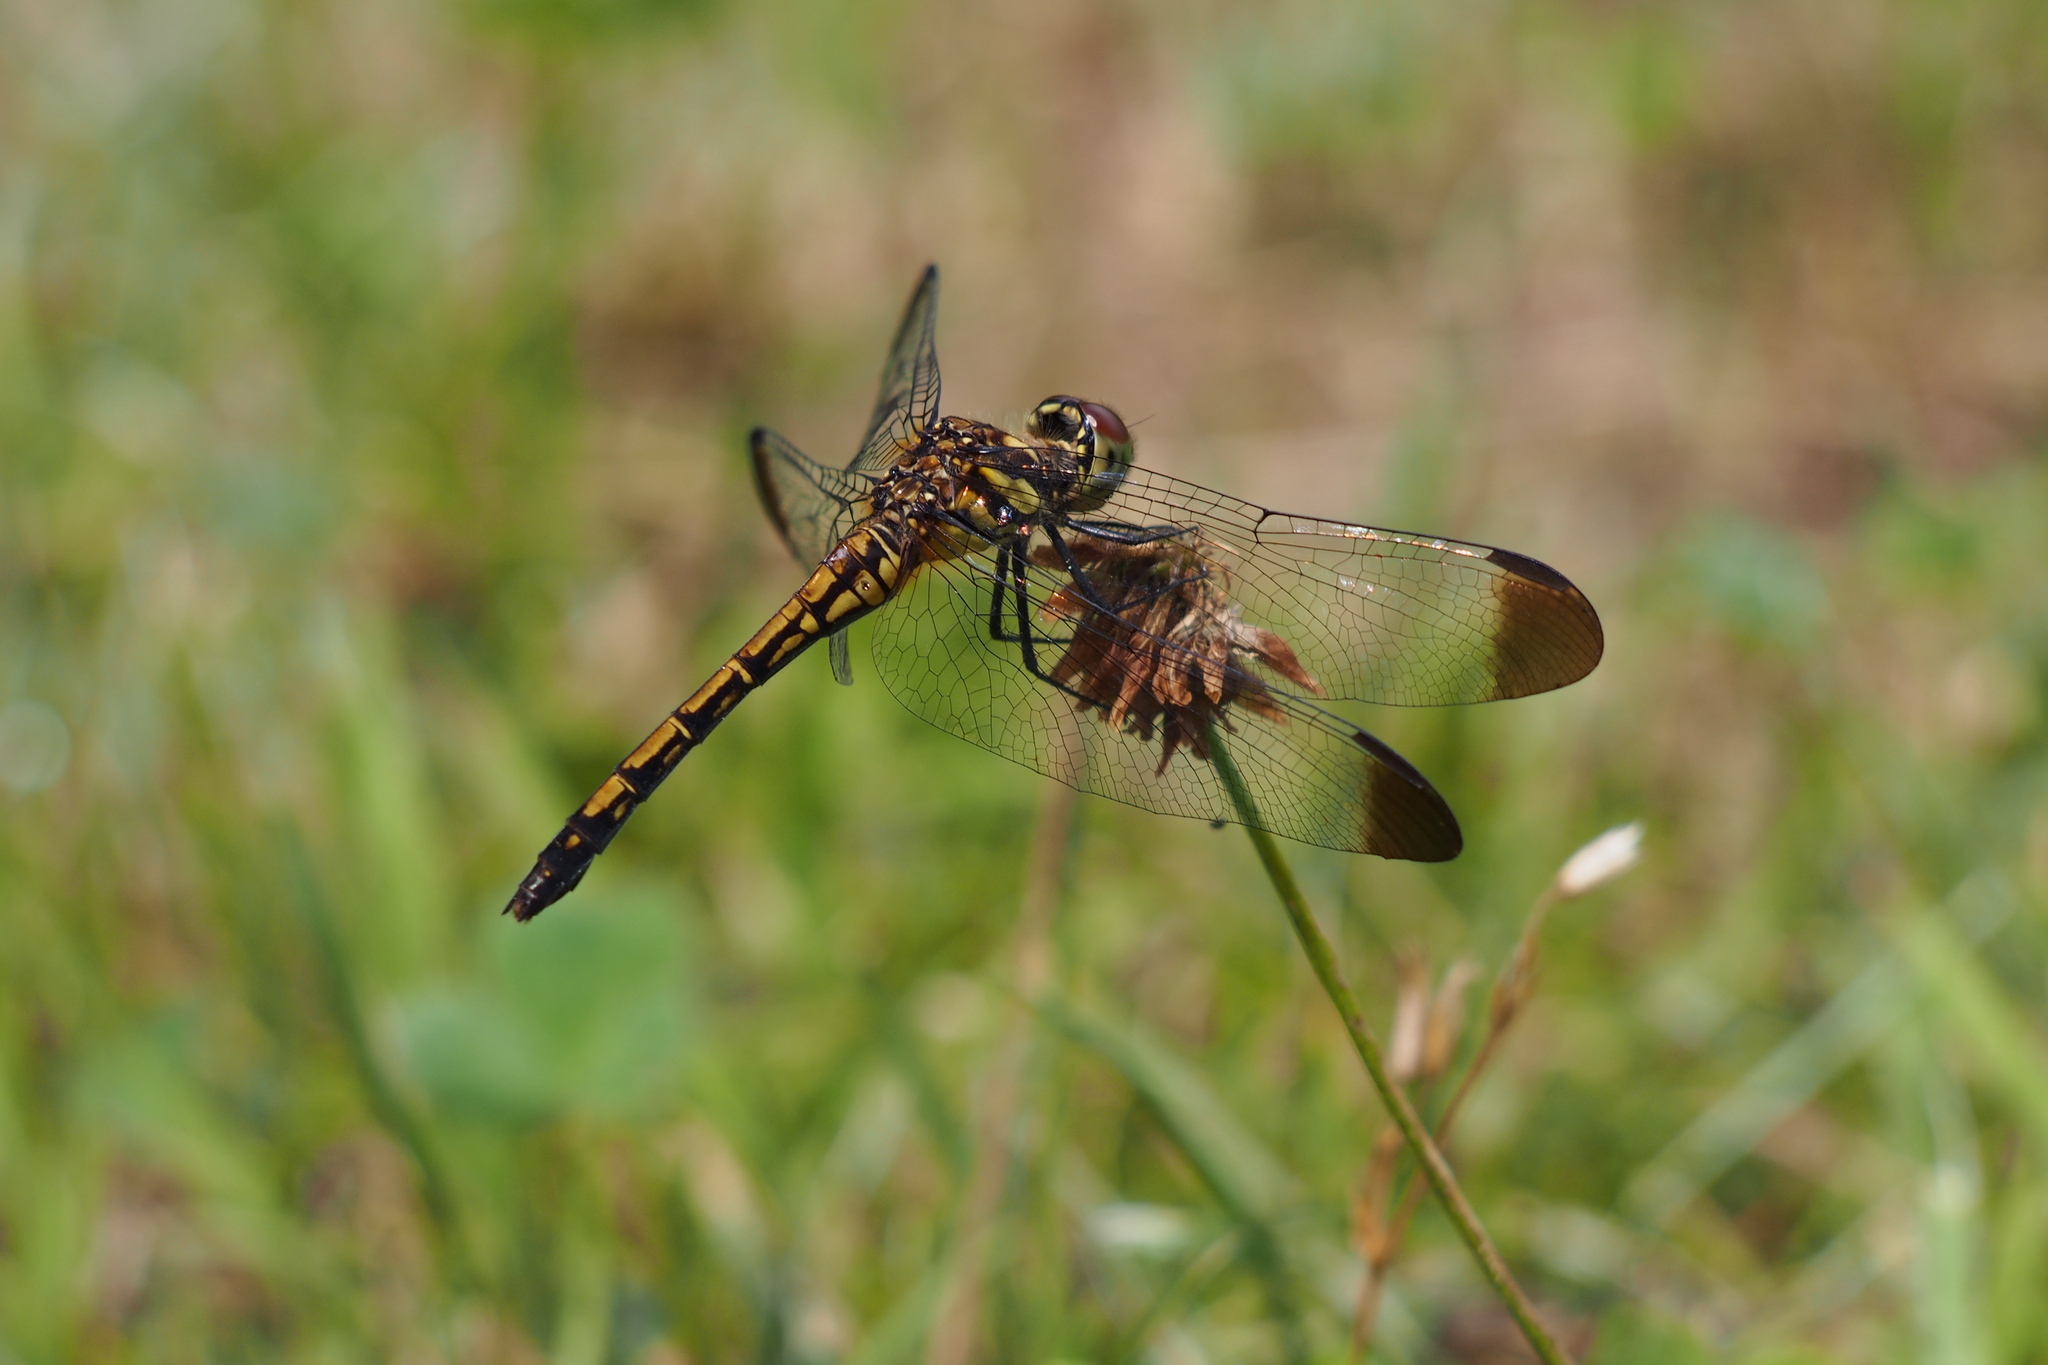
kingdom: Animalia
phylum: Arthropoda
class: Insecta
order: Odonata
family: Libellulidae
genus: Sympetrum
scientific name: Sympetrum infuscatum
